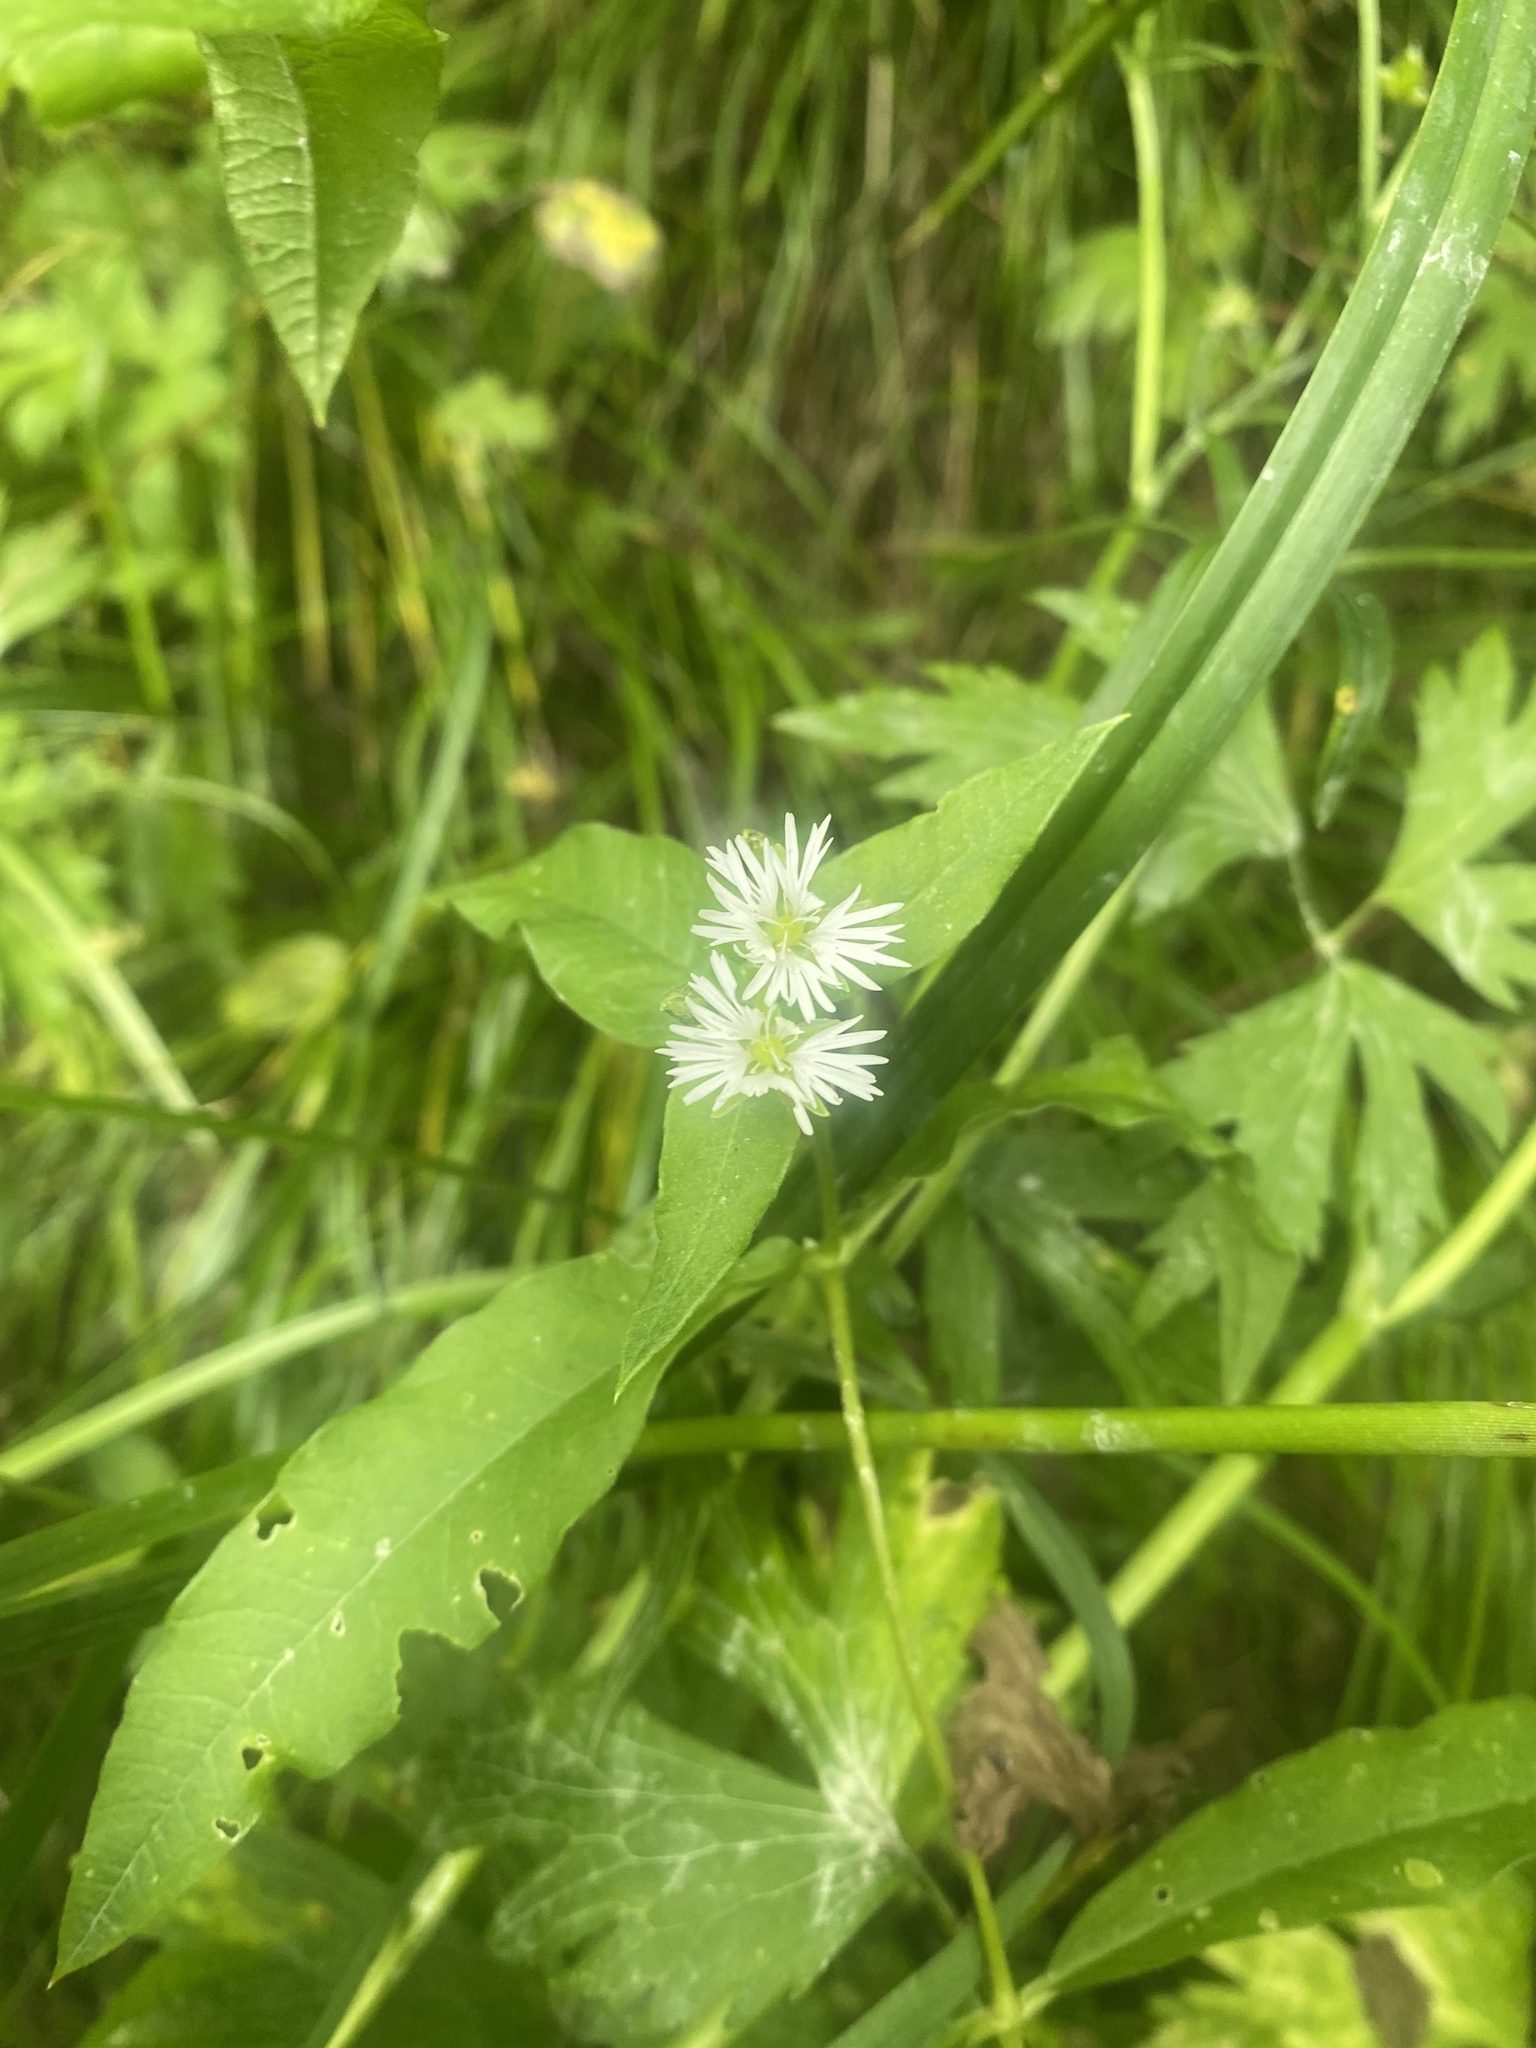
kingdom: Plantae
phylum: Tracheophyta
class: Magnoliopsida
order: Caryophyllales
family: Caryophyllaceae
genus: Stellaria
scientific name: Stellaria radians
